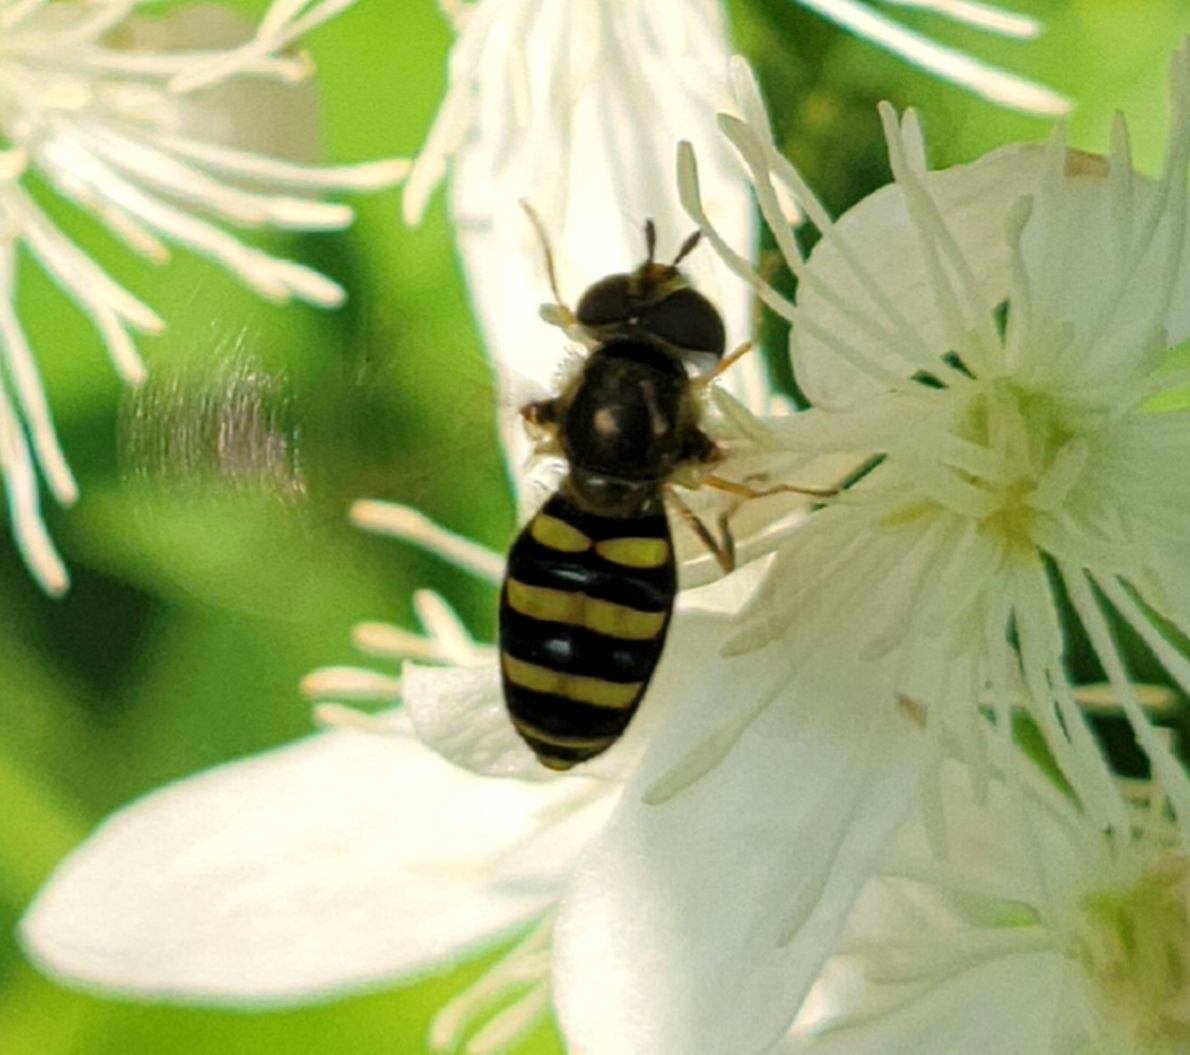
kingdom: Animalia
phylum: Arthropoda
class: Insecta
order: Diptera
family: Syrphidae
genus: Eupeodes
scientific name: Eupeodes
